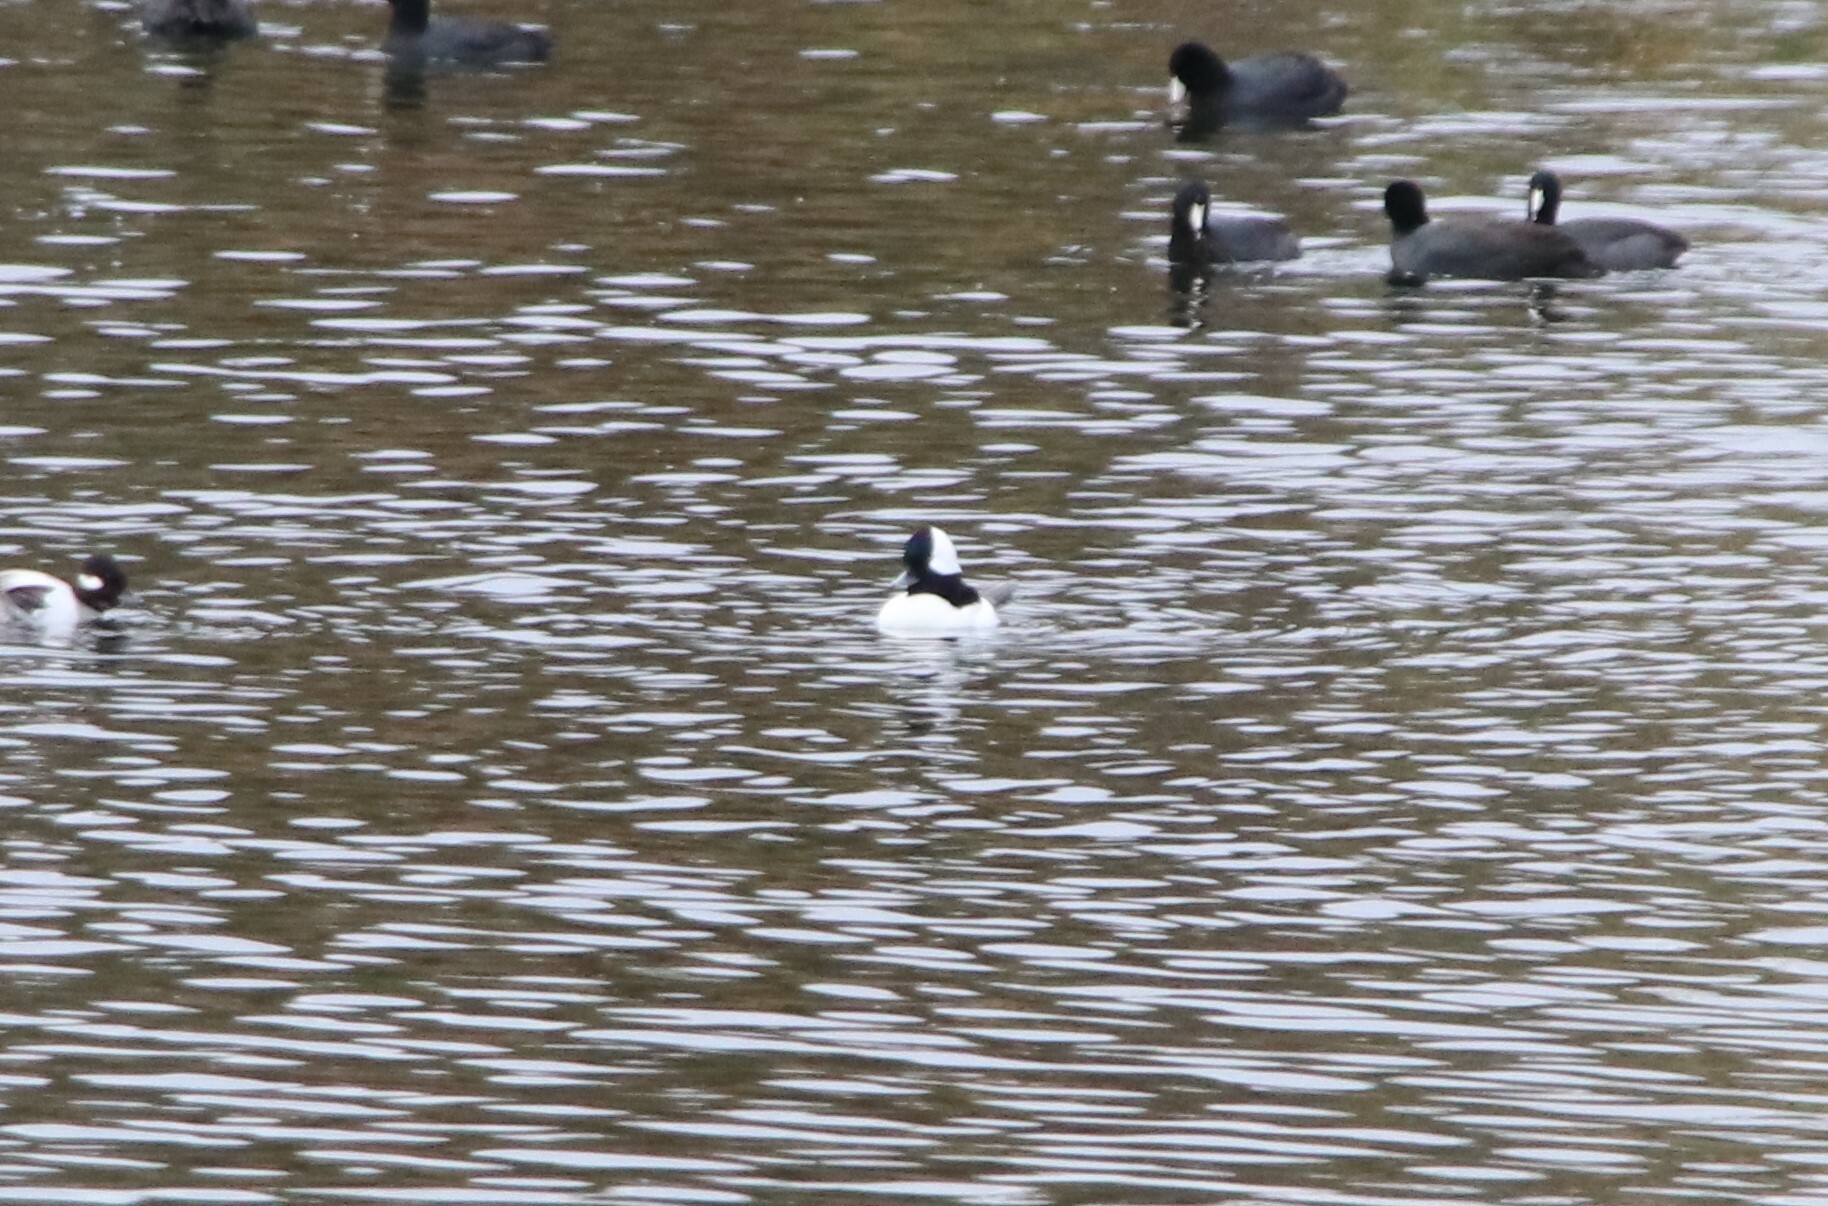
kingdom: Animalia
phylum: Chordata
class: Aves
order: Anseriformes
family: Anatidae
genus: Bucephala
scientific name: Bucephala albeola
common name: Bufflehead
